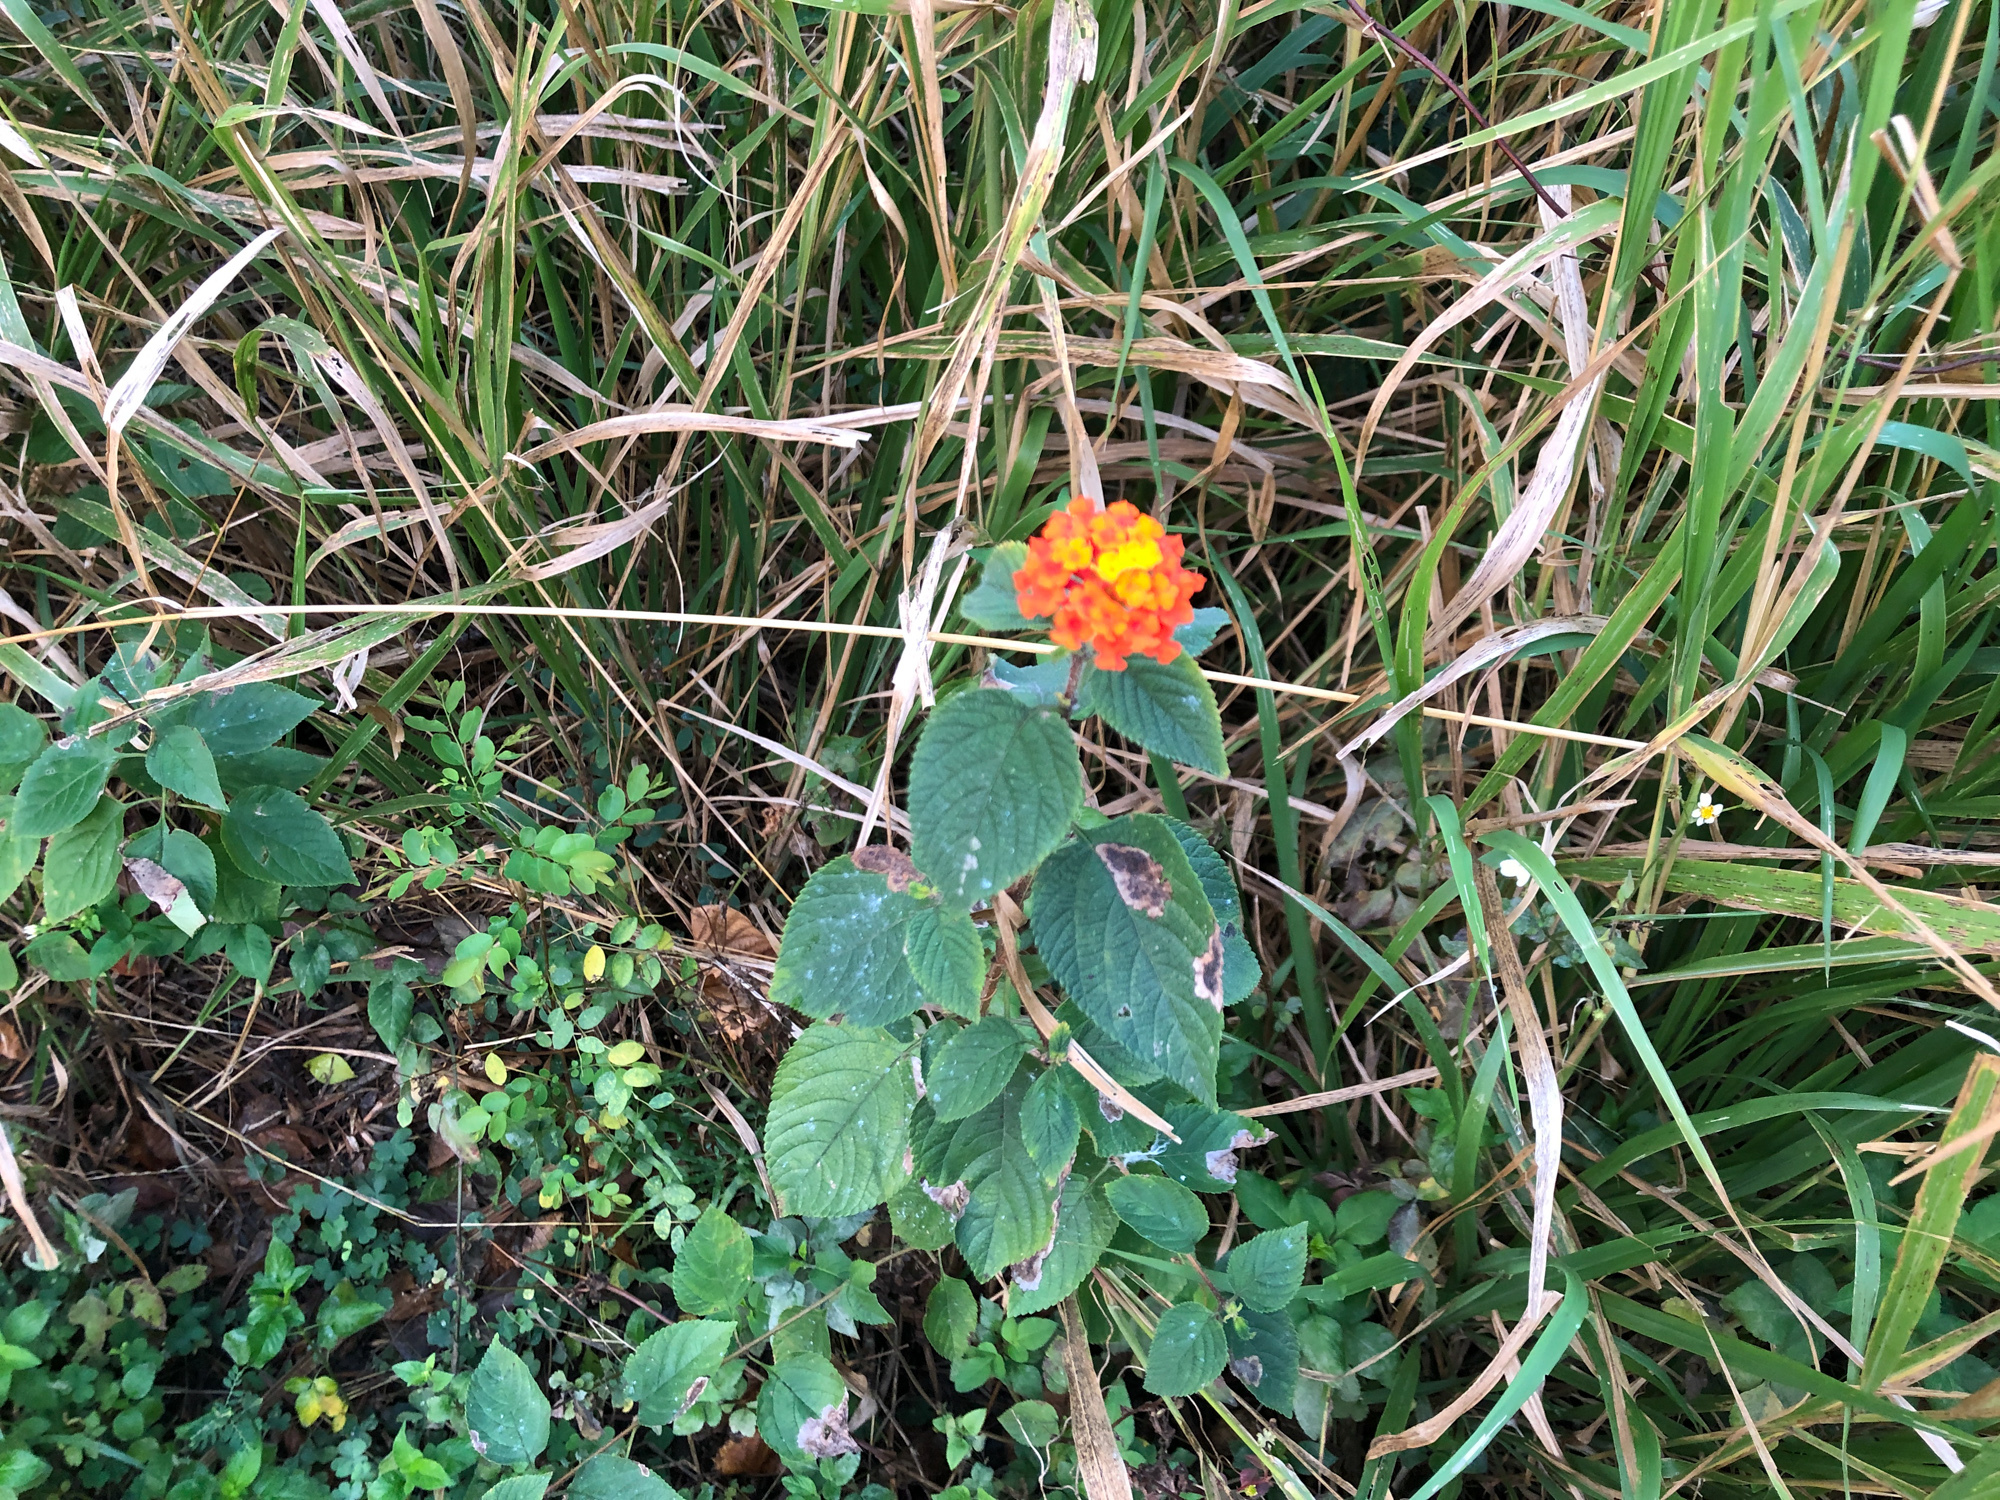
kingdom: Plantae
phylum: Tracheophyta
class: Magnoliopsida
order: Lamiales
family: Verbenaceae
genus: Lantana
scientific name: Lantana camara
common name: Lantana
